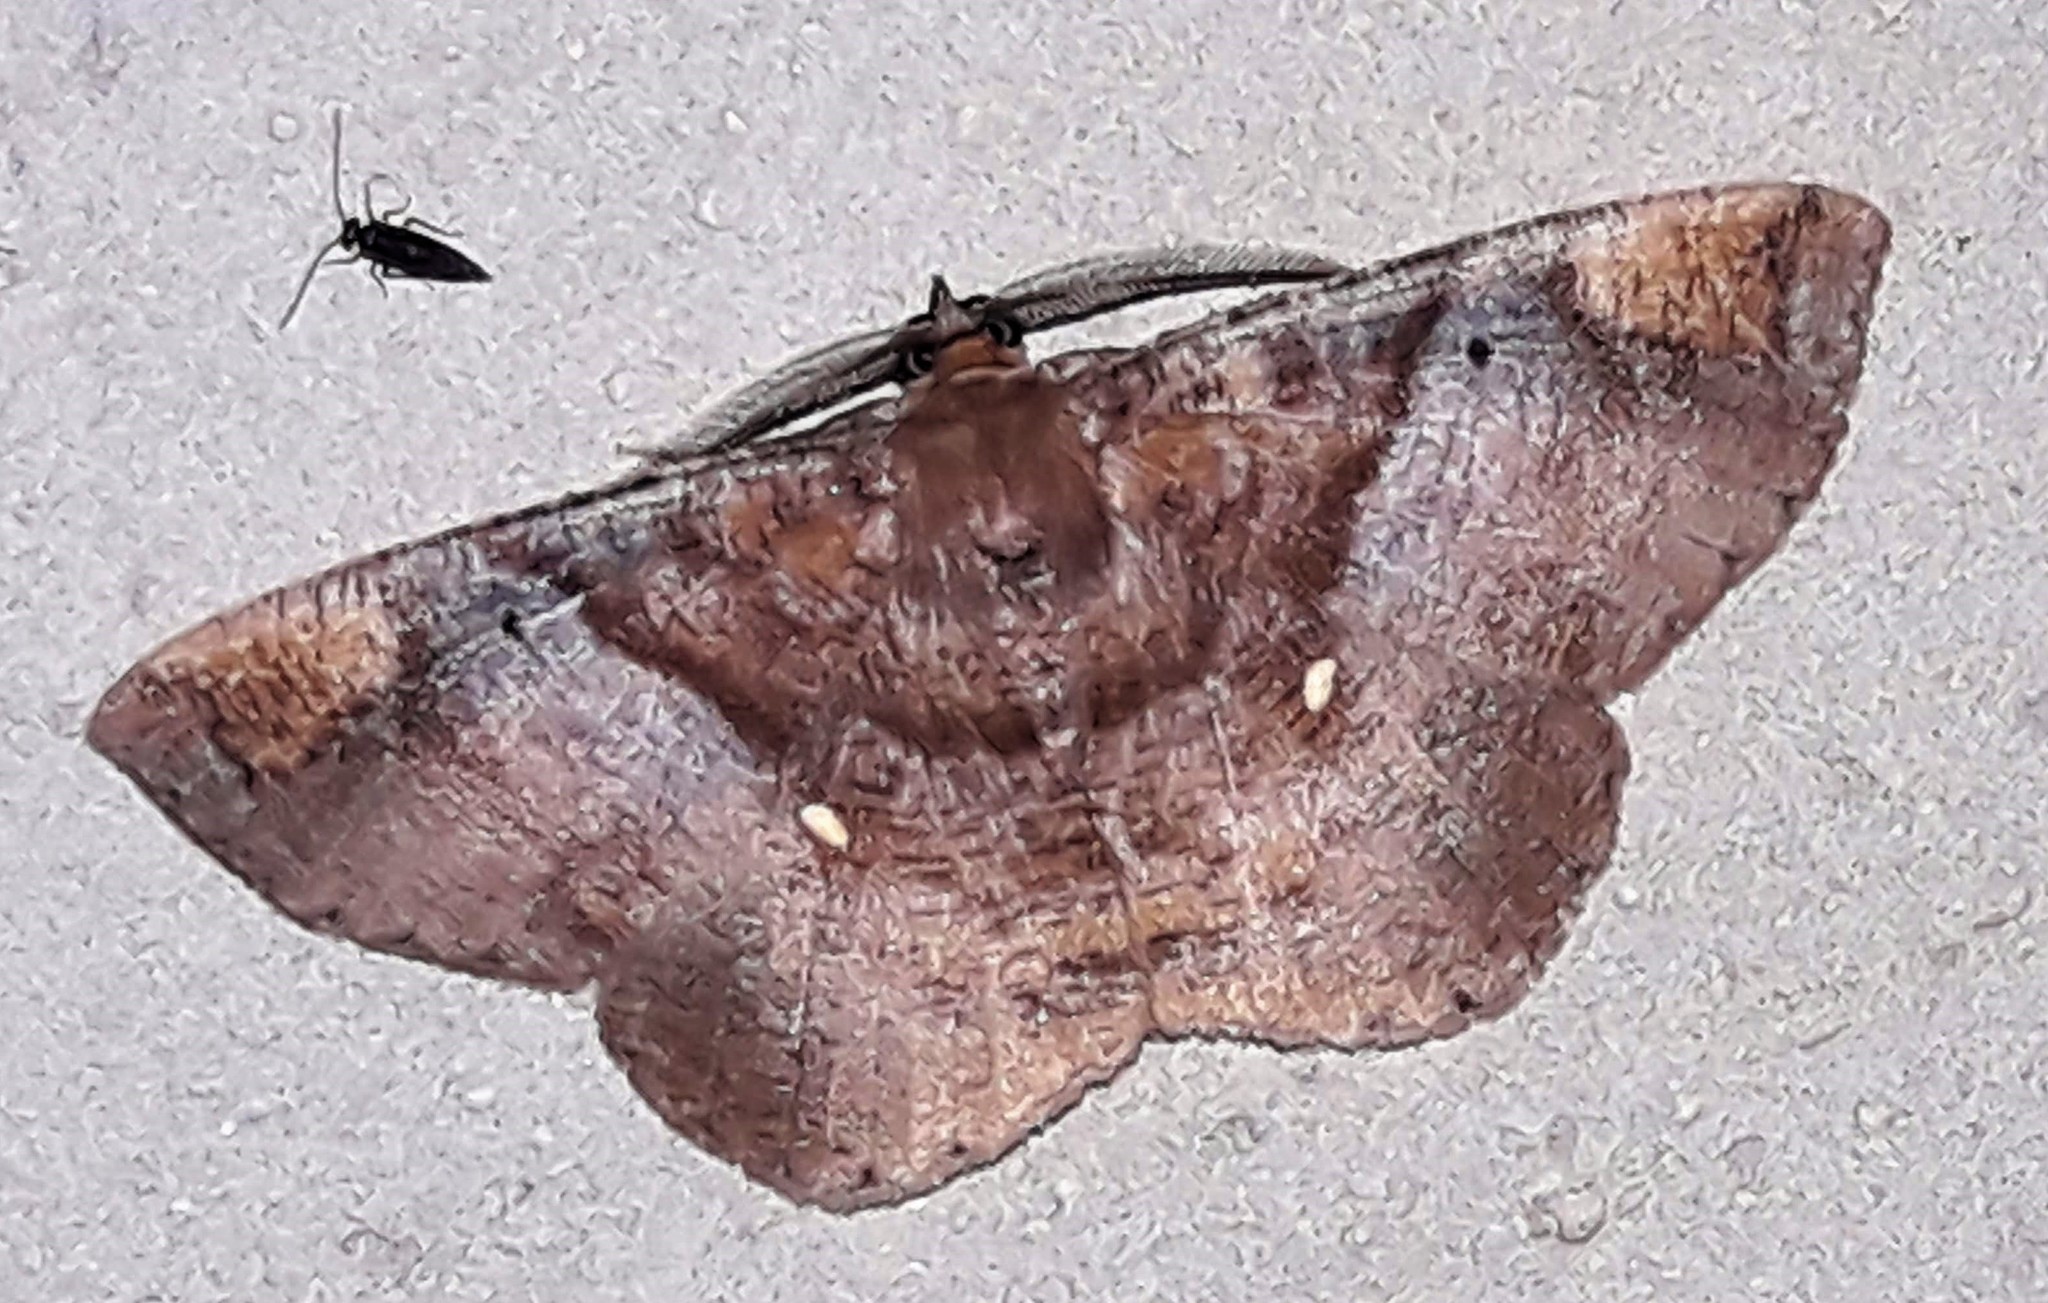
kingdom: Animalia
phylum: Arthropoda
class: Insecta
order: Lepidoptera
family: Geometridae
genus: Thysanopyga
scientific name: Thysanopyga
